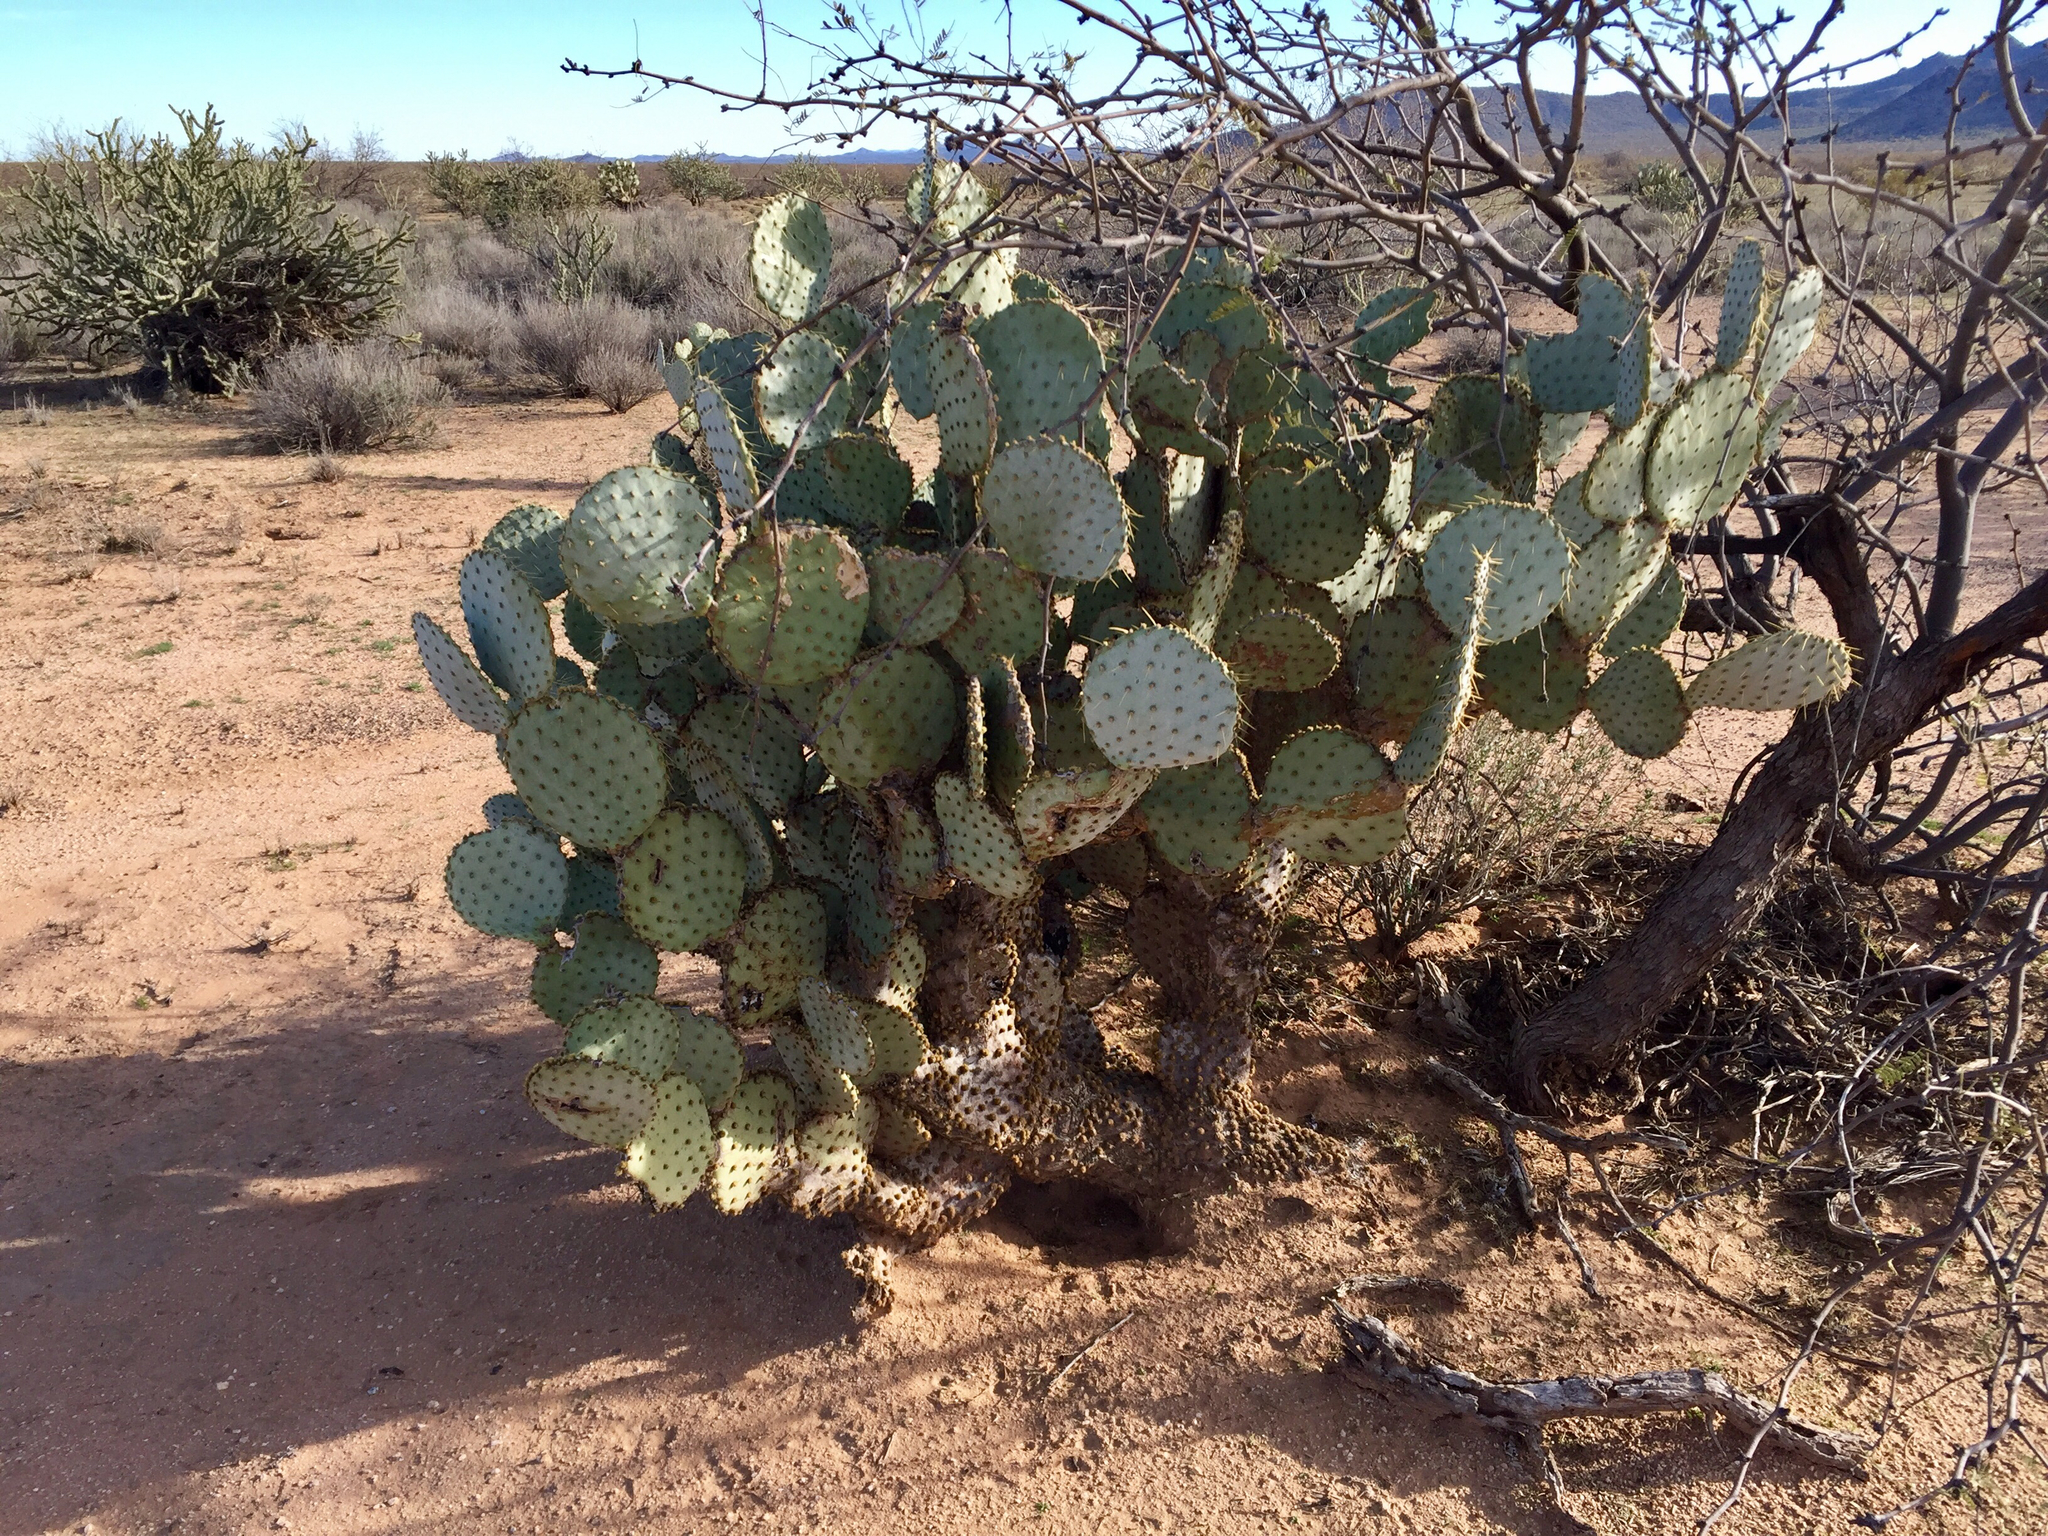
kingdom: Plantae
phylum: Tracheophyta
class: Magnoliopsida
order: Caryophyllales
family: Cactaceae
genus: Opuntia
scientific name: Opuntia chlorotica
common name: Dollar-joint prickly-pear
